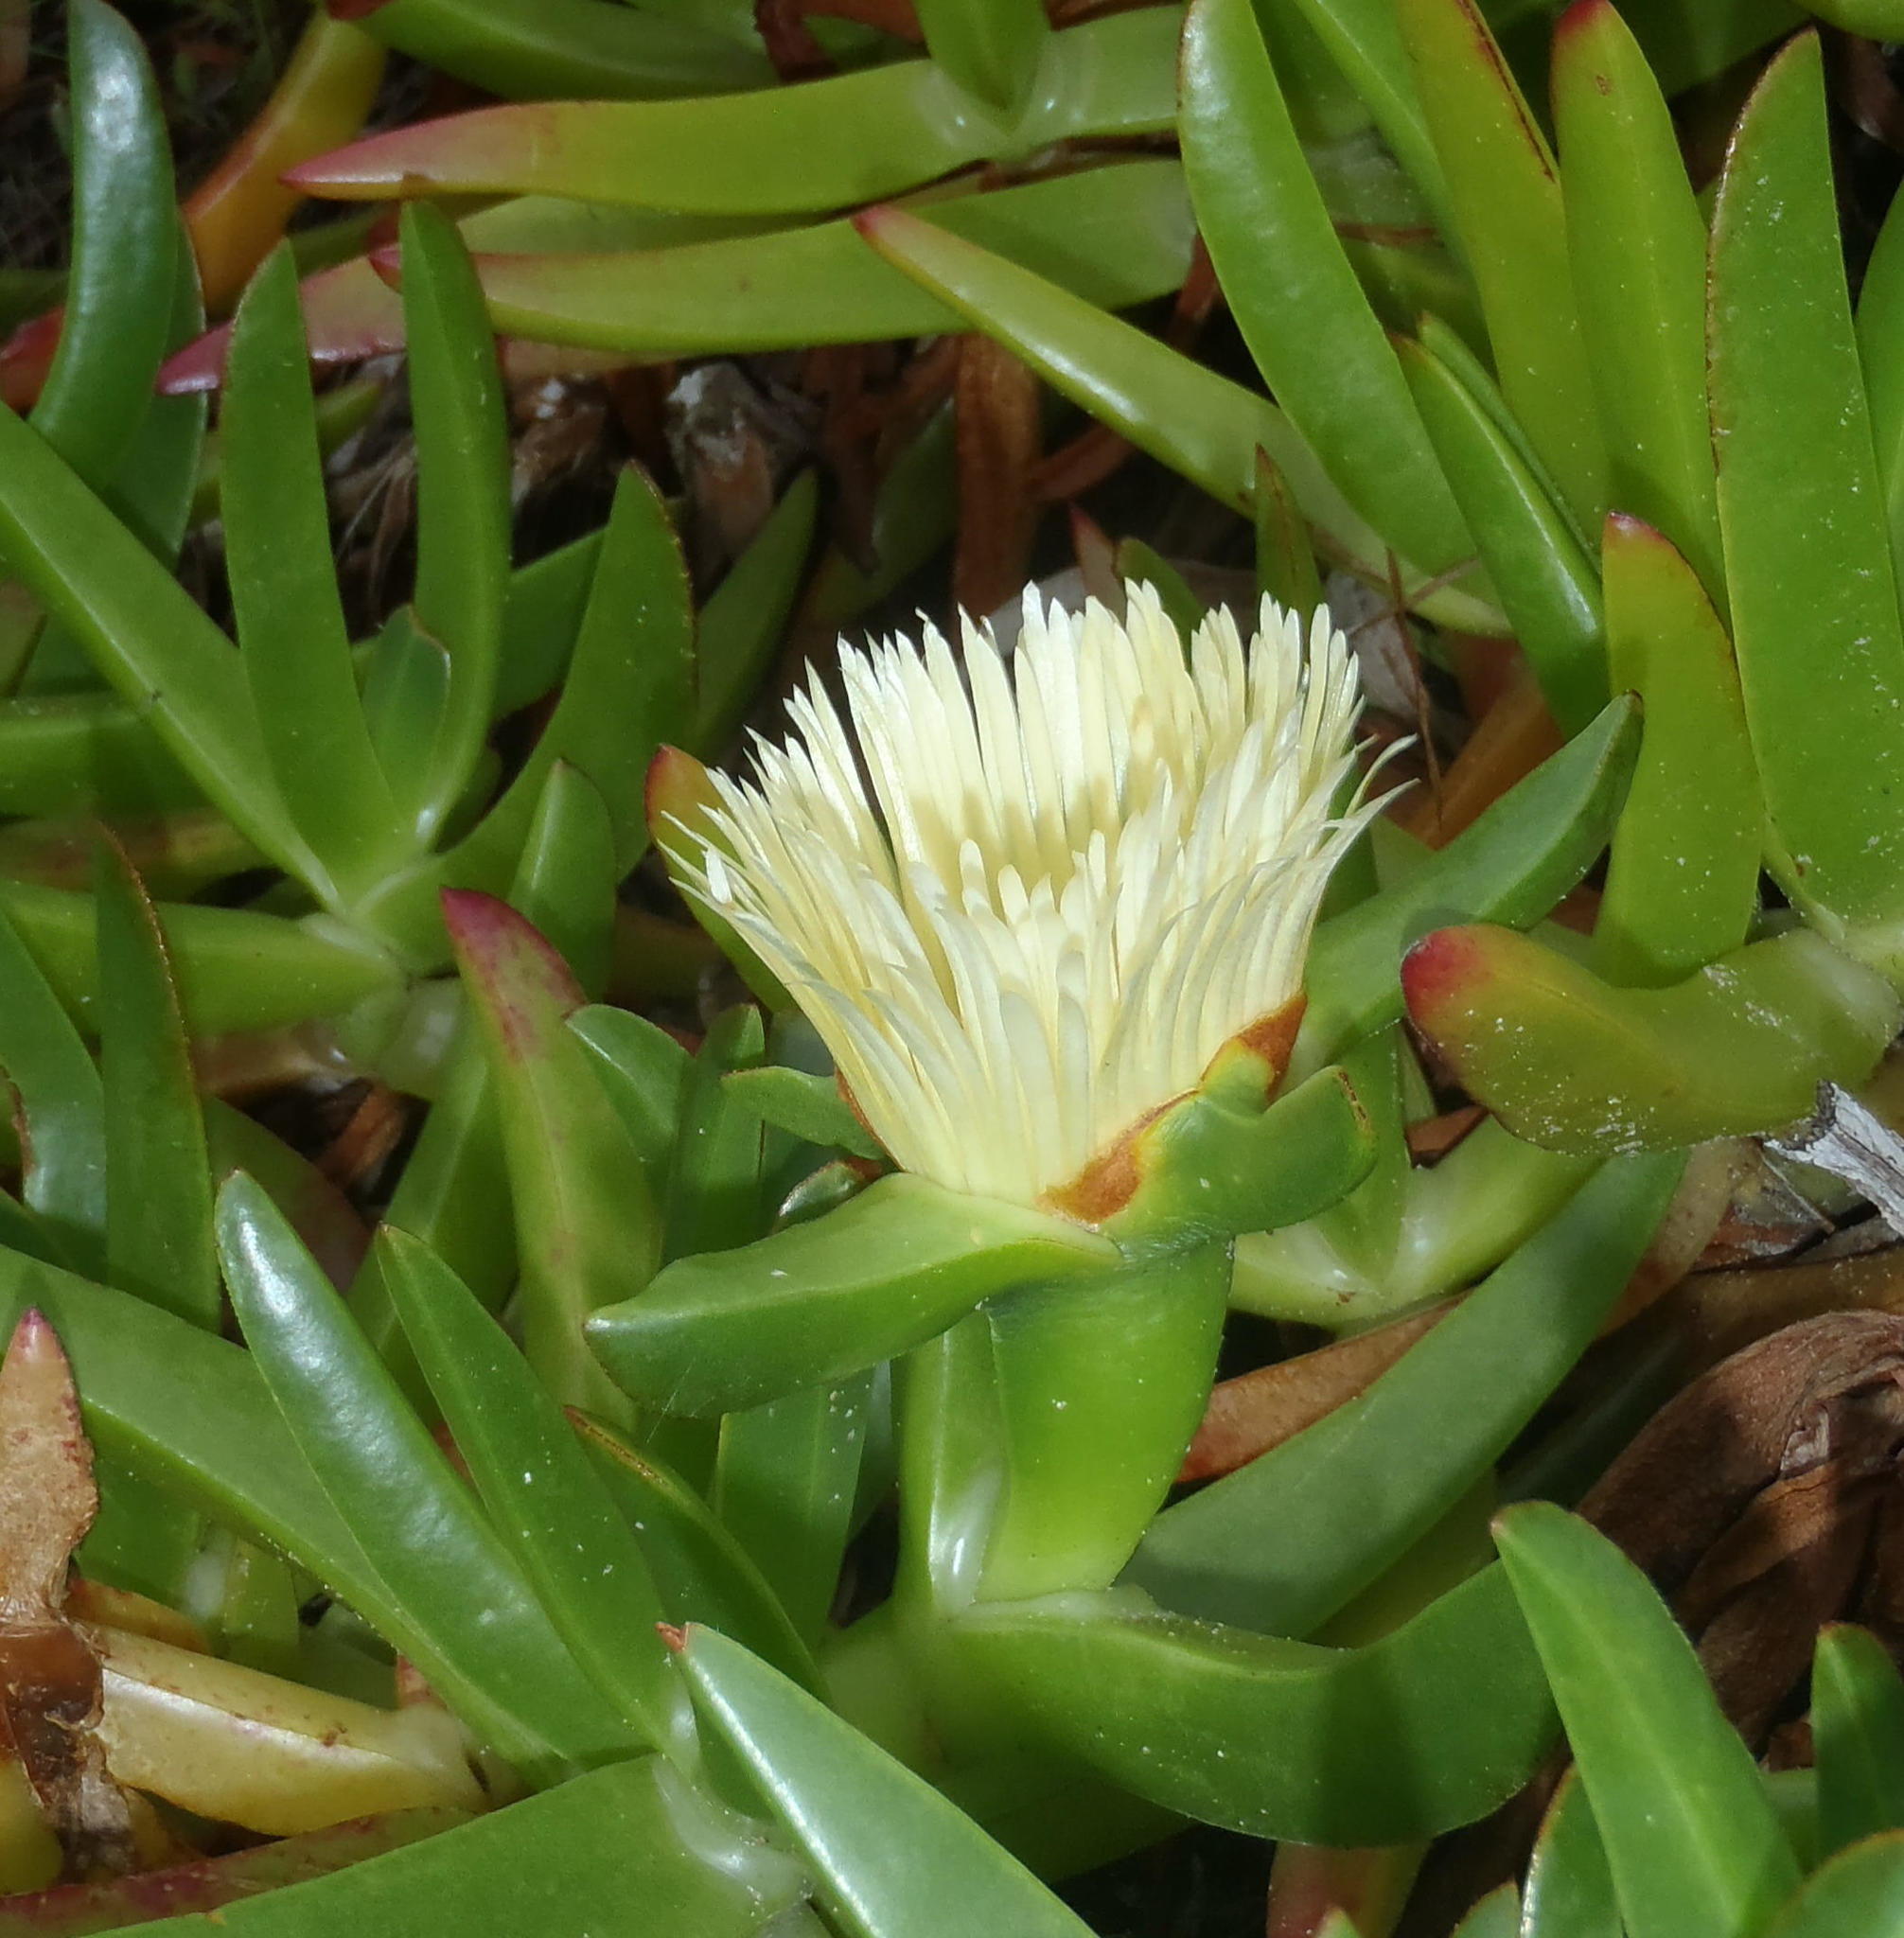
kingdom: Plantae
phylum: Tracheophyta
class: Magnoliopsida
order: Caryophyllales
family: Aizoaceae
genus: Carpobrotus
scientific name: Carpobrotus edulis
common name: Hottentot-fig
